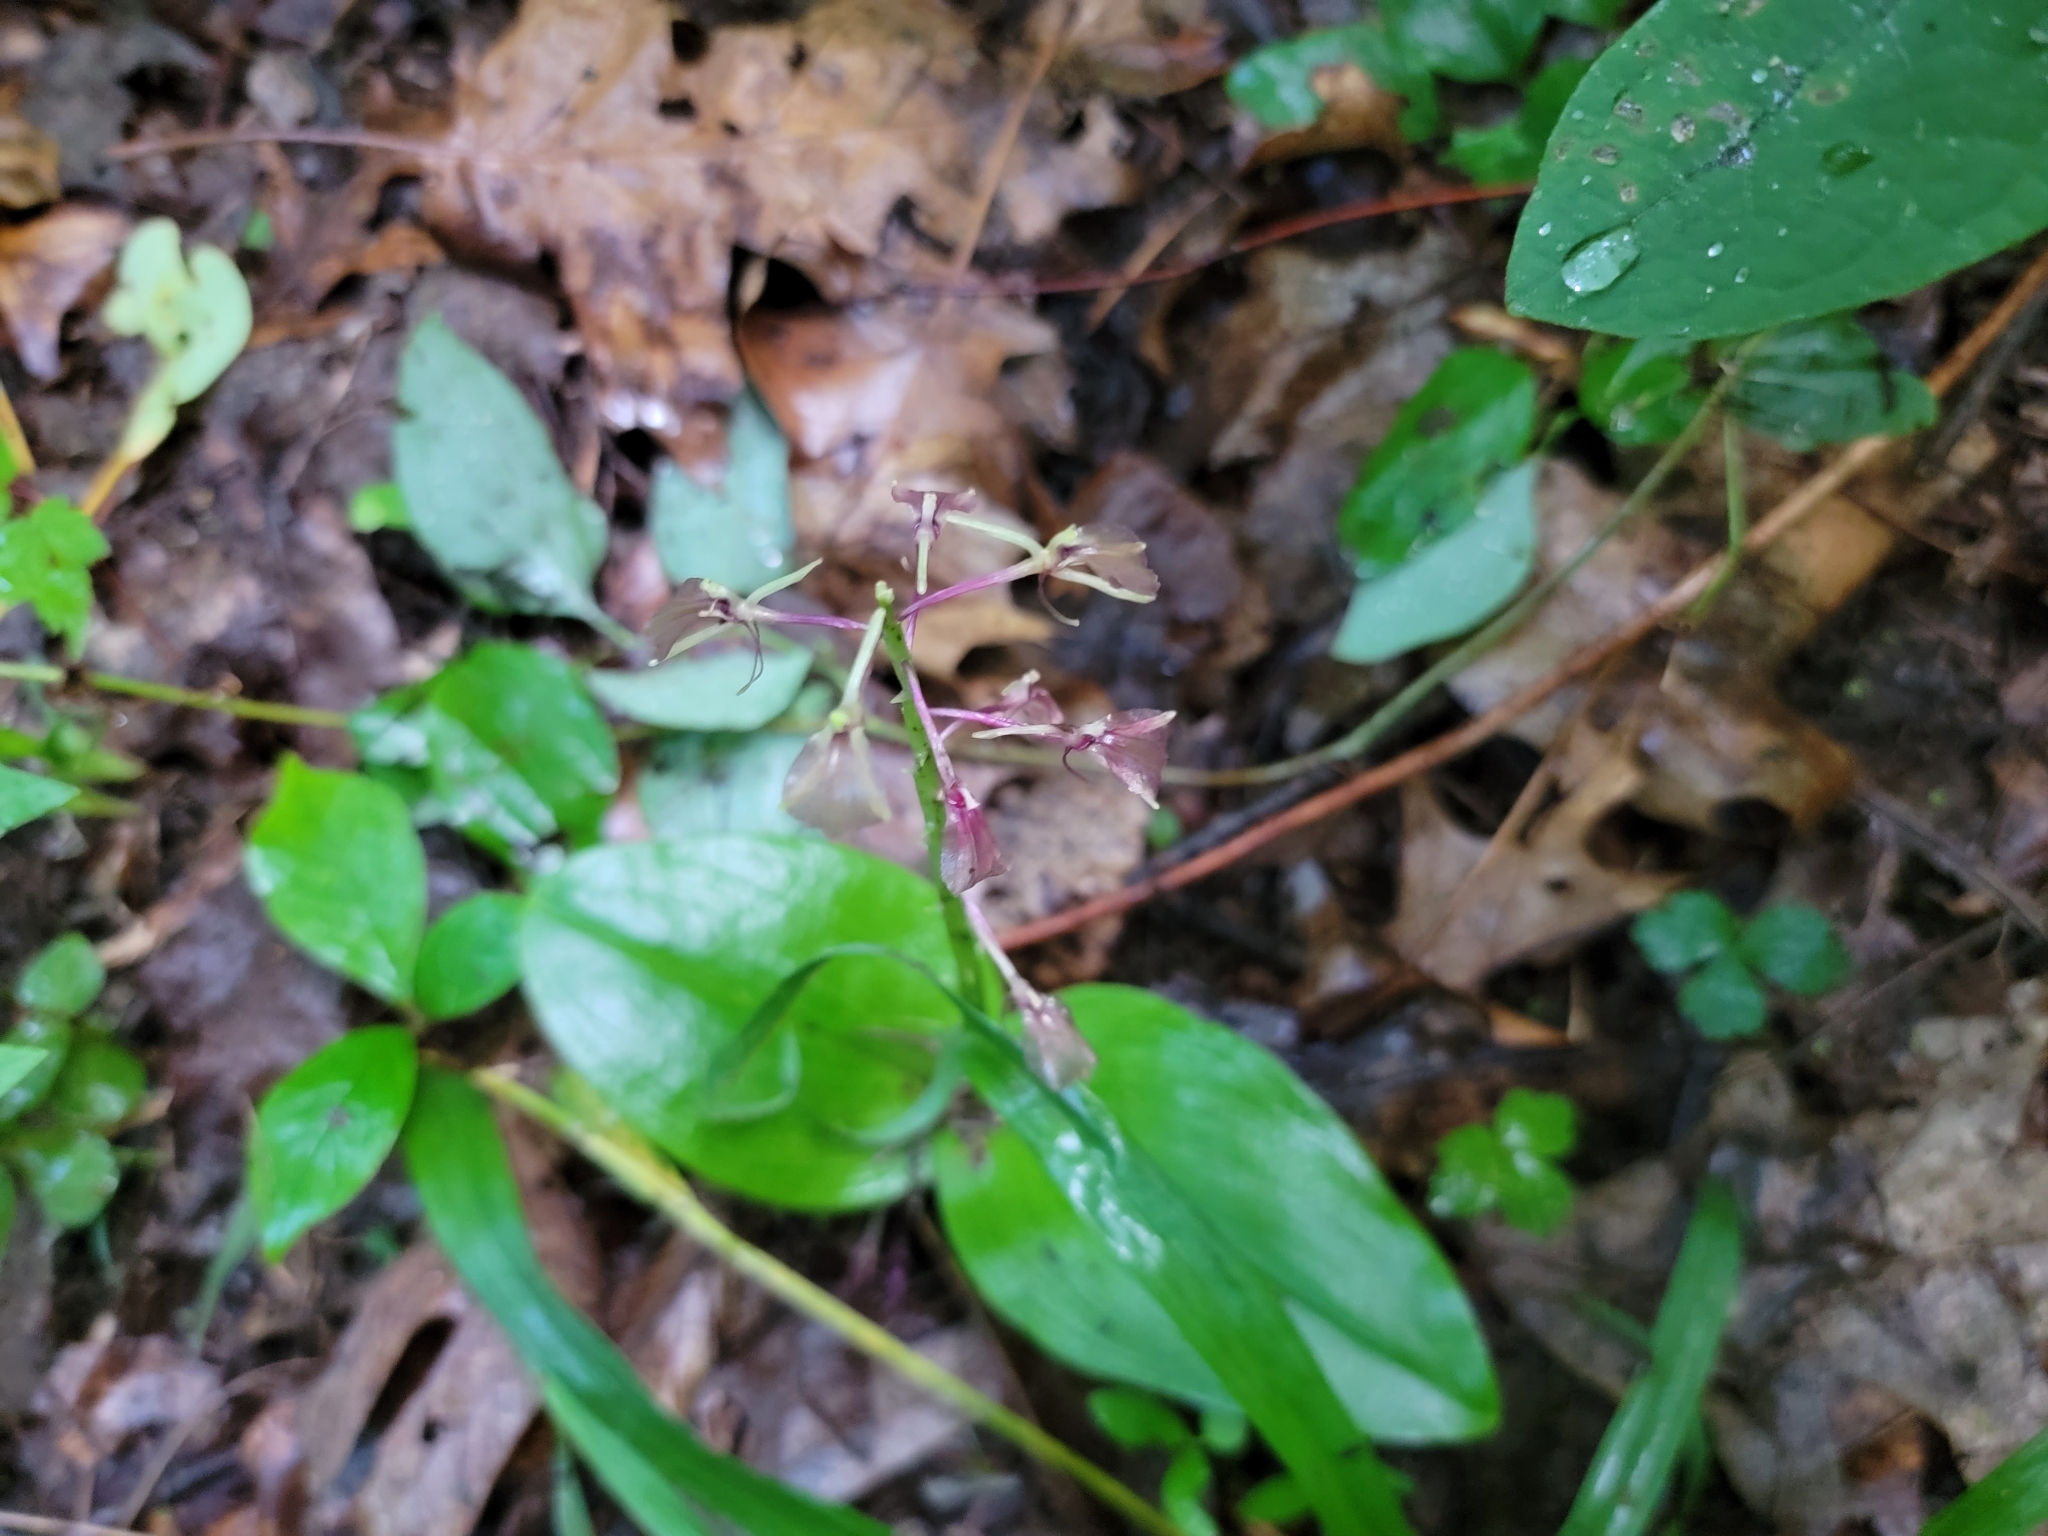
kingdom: Plantae
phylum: Tracheophyta
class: Liliopsida
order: Asparagales
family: Orchidaceae
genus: Liparis
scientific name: Liparis liliifolia
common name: Brown wide-lip orchid
